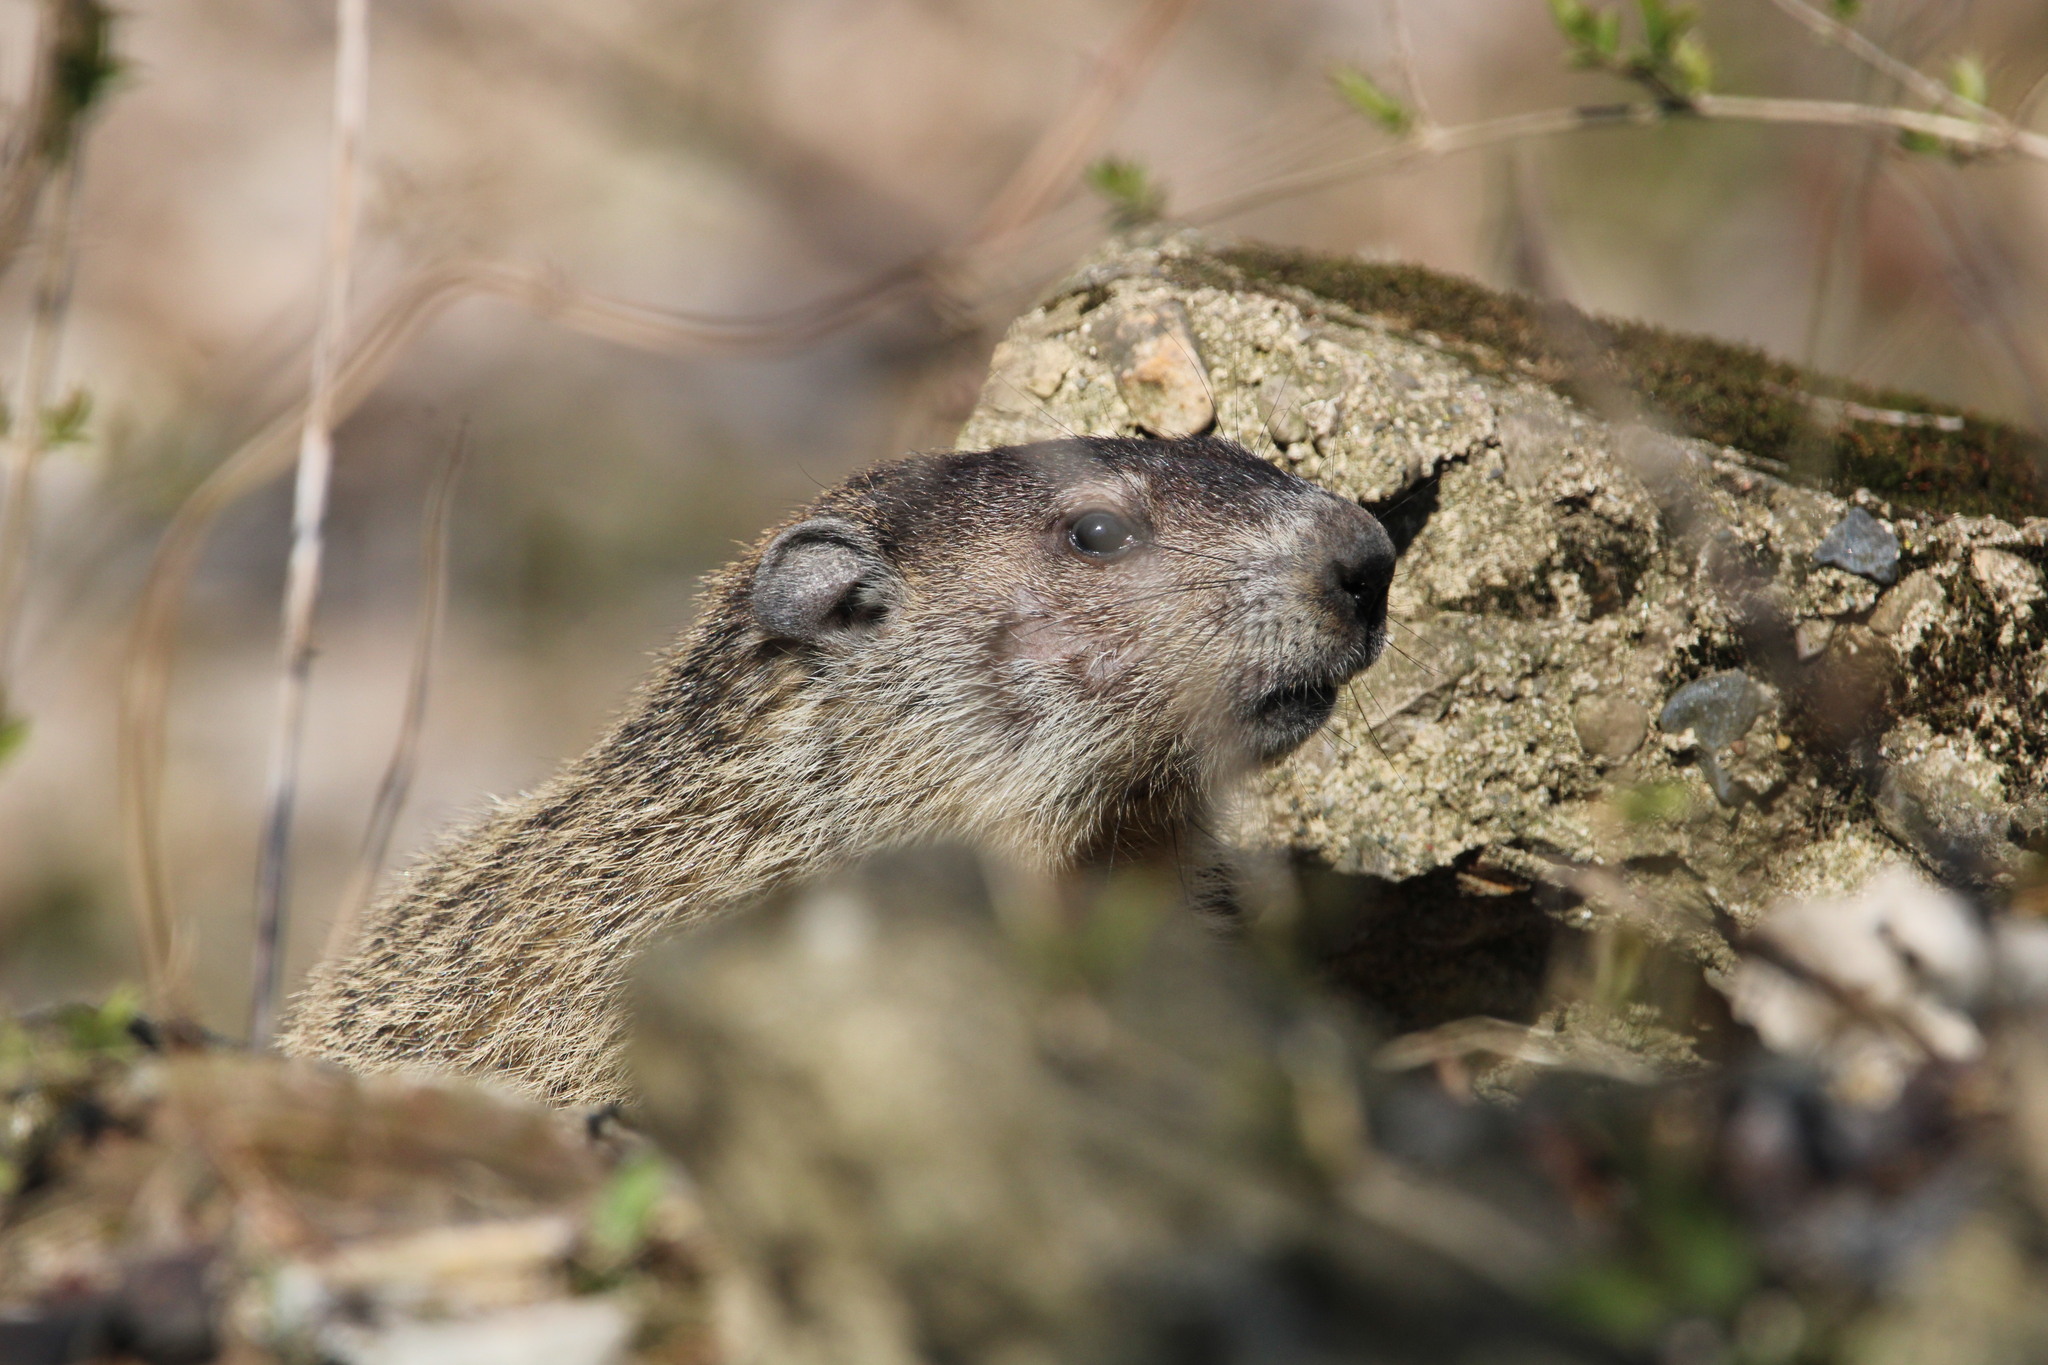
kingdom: Animalia
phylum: Chordata
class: Mammalia
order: Rodentia
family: Sciuridae
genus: Marmota
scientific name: Marmota monax
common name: Groundhog
